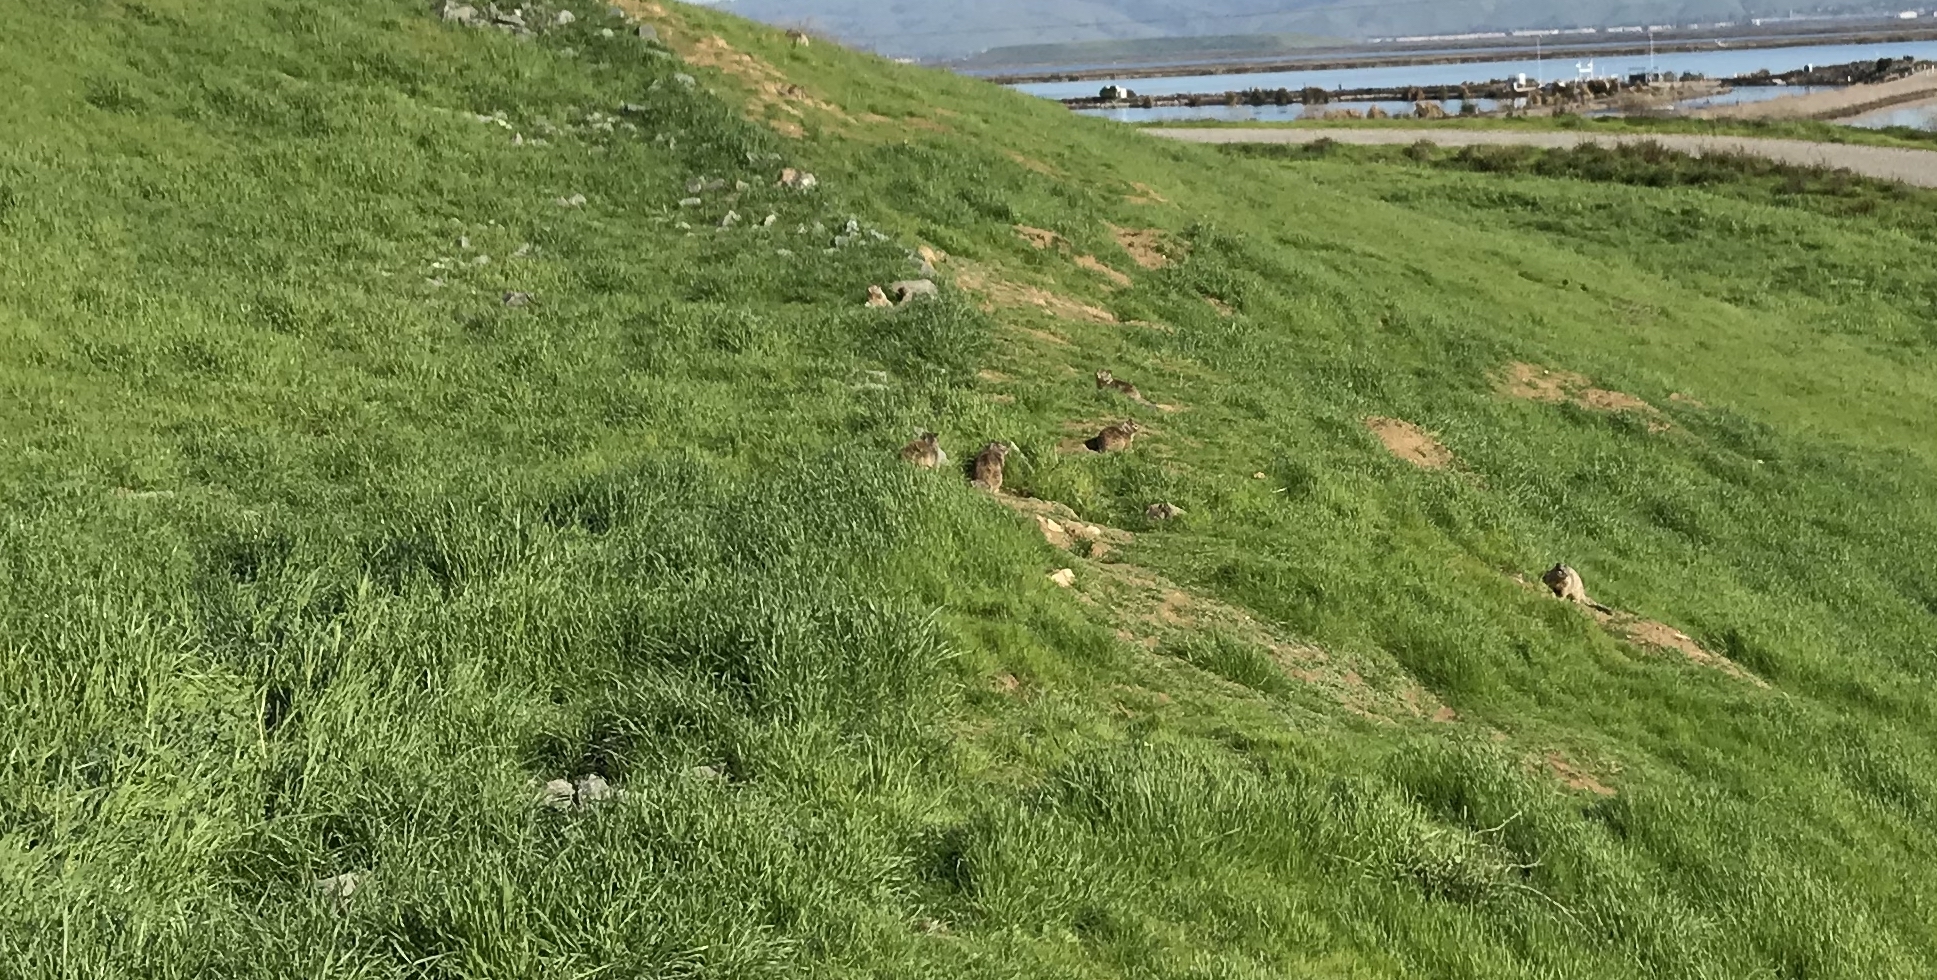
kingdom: Animalia
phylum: Chordata
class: Mammalia
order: Rodentia
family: Sciuridae
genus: Otospermophilus
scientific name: Otospermophilus beecheyi
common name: California ground squirrel
